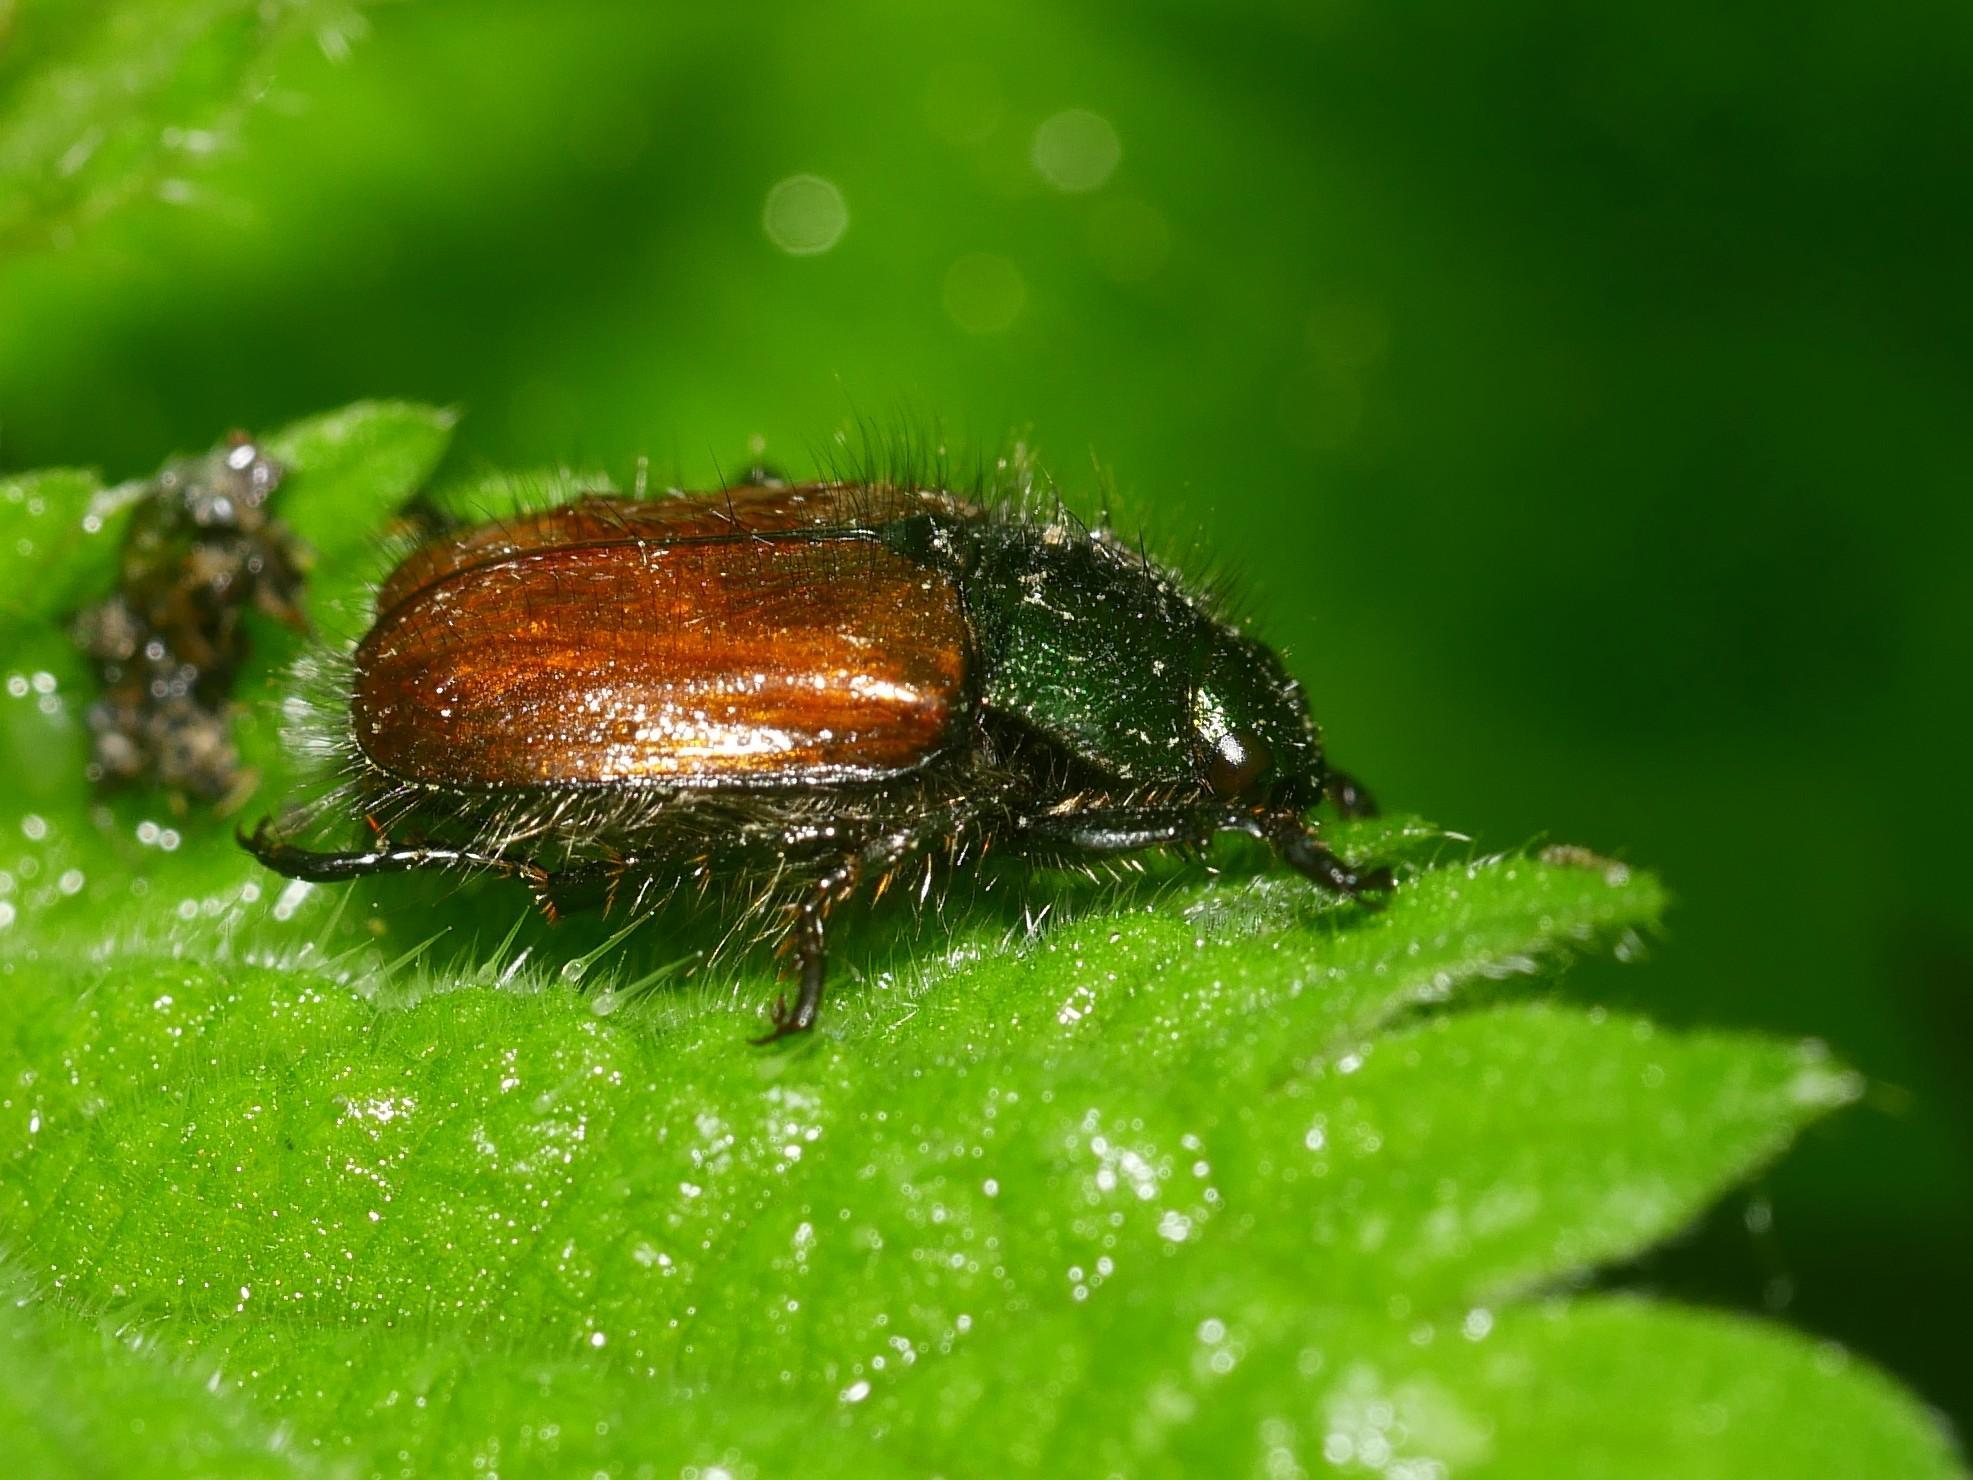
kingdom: Animalia
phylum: Arthropoda
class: Insecta
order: Coleoptera
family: Scarabaeidae
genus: Phyllopertha
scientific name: Phyllopertha horticola
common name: Garden chafer
